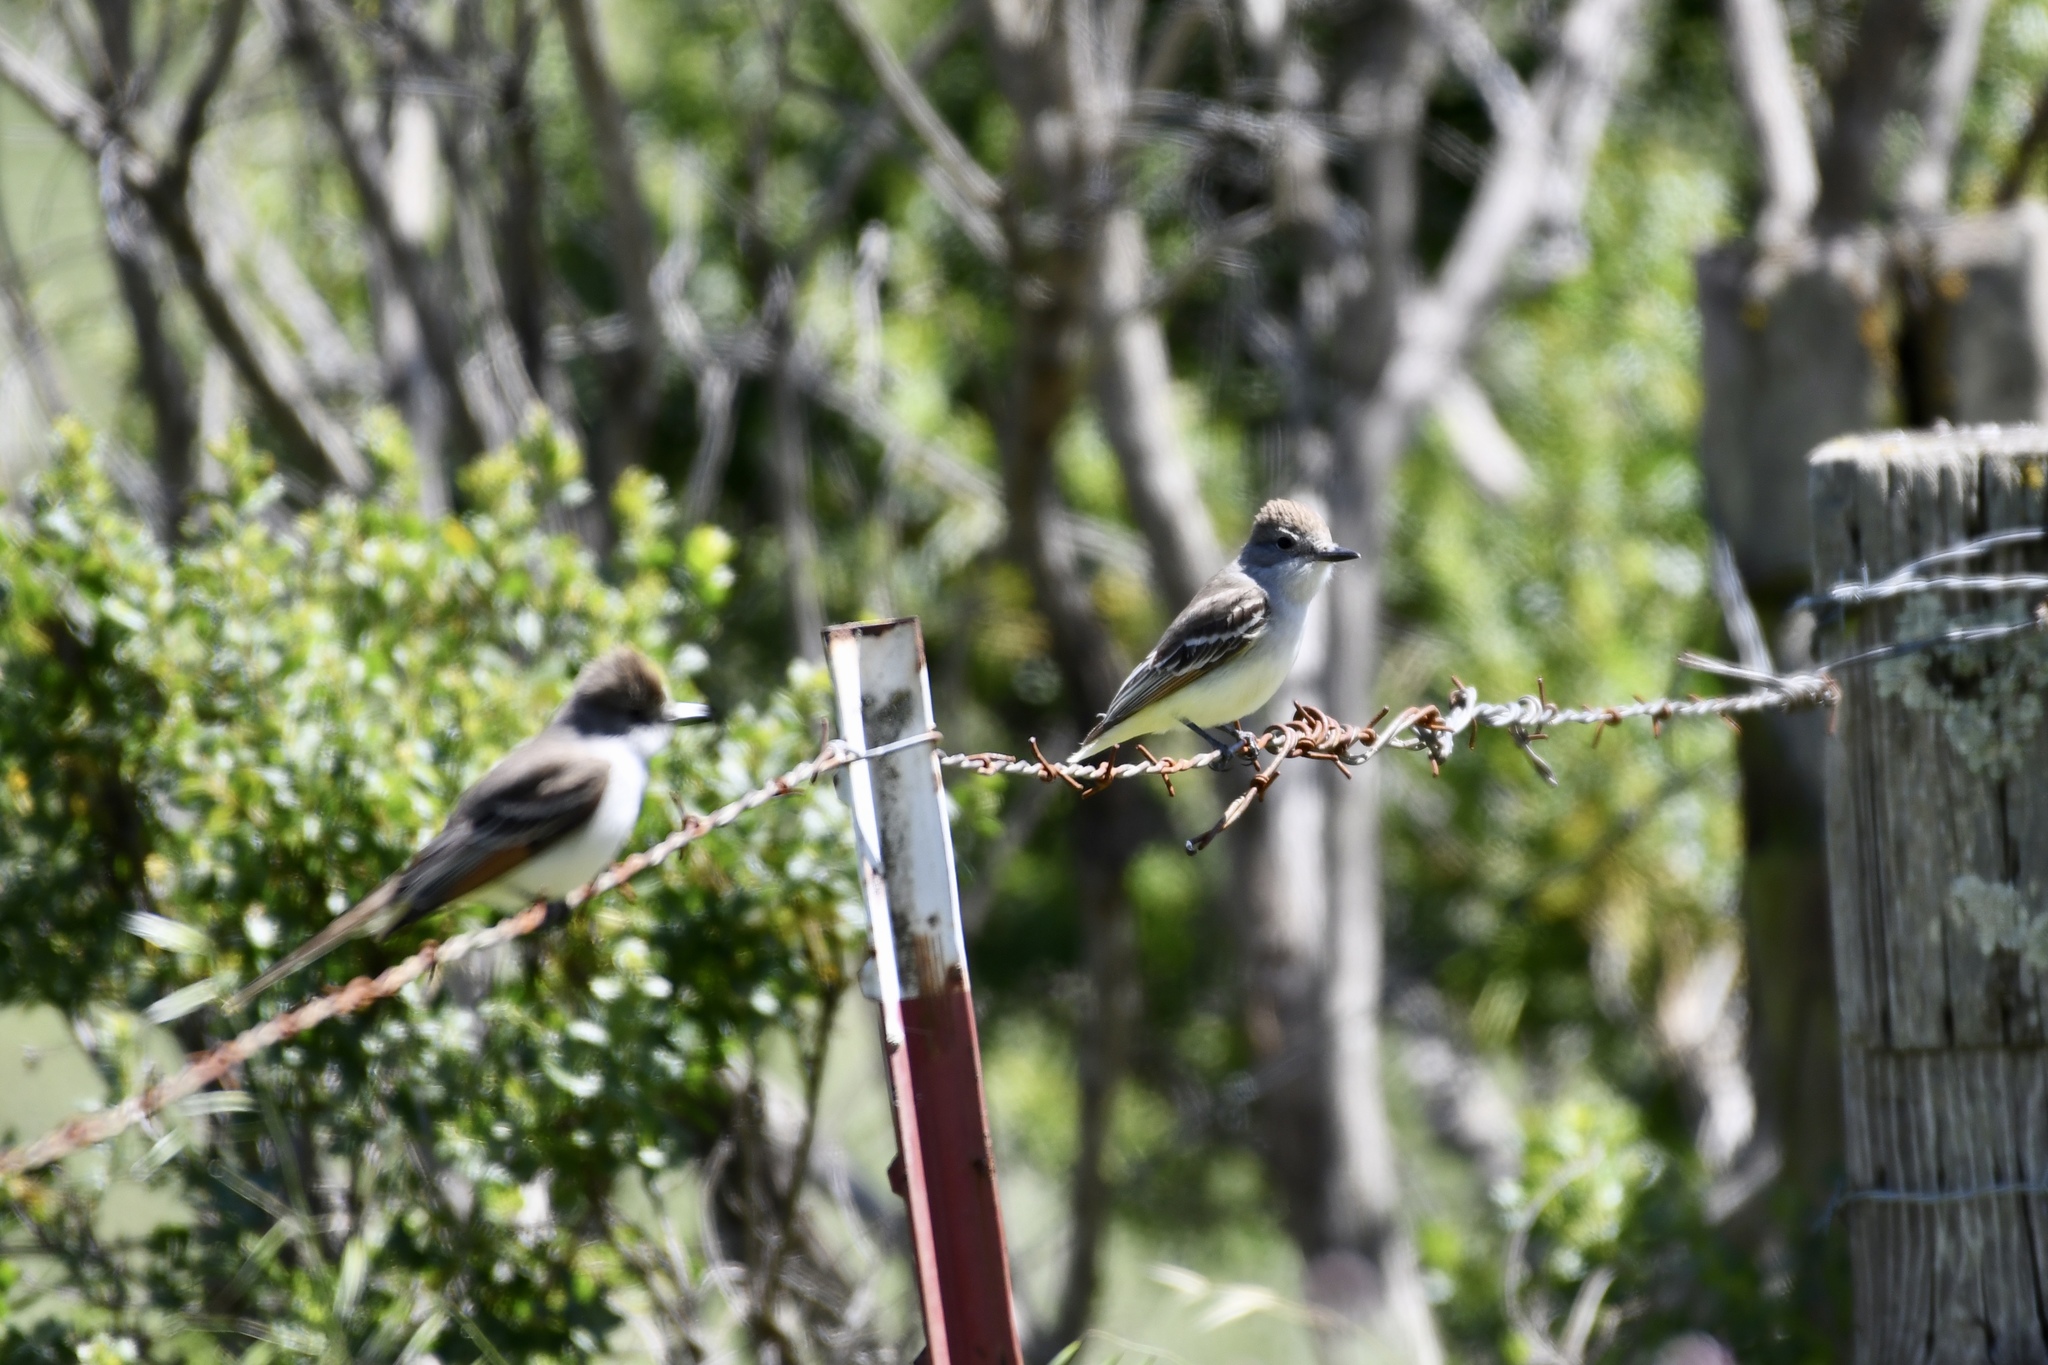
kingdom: Animalia
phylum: Chordata
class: Aves
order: Passeriformes
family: Tyrannidae
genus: Myiarchus
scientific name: Myiarchus cinerascens
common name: Ash-throated flycatcher
